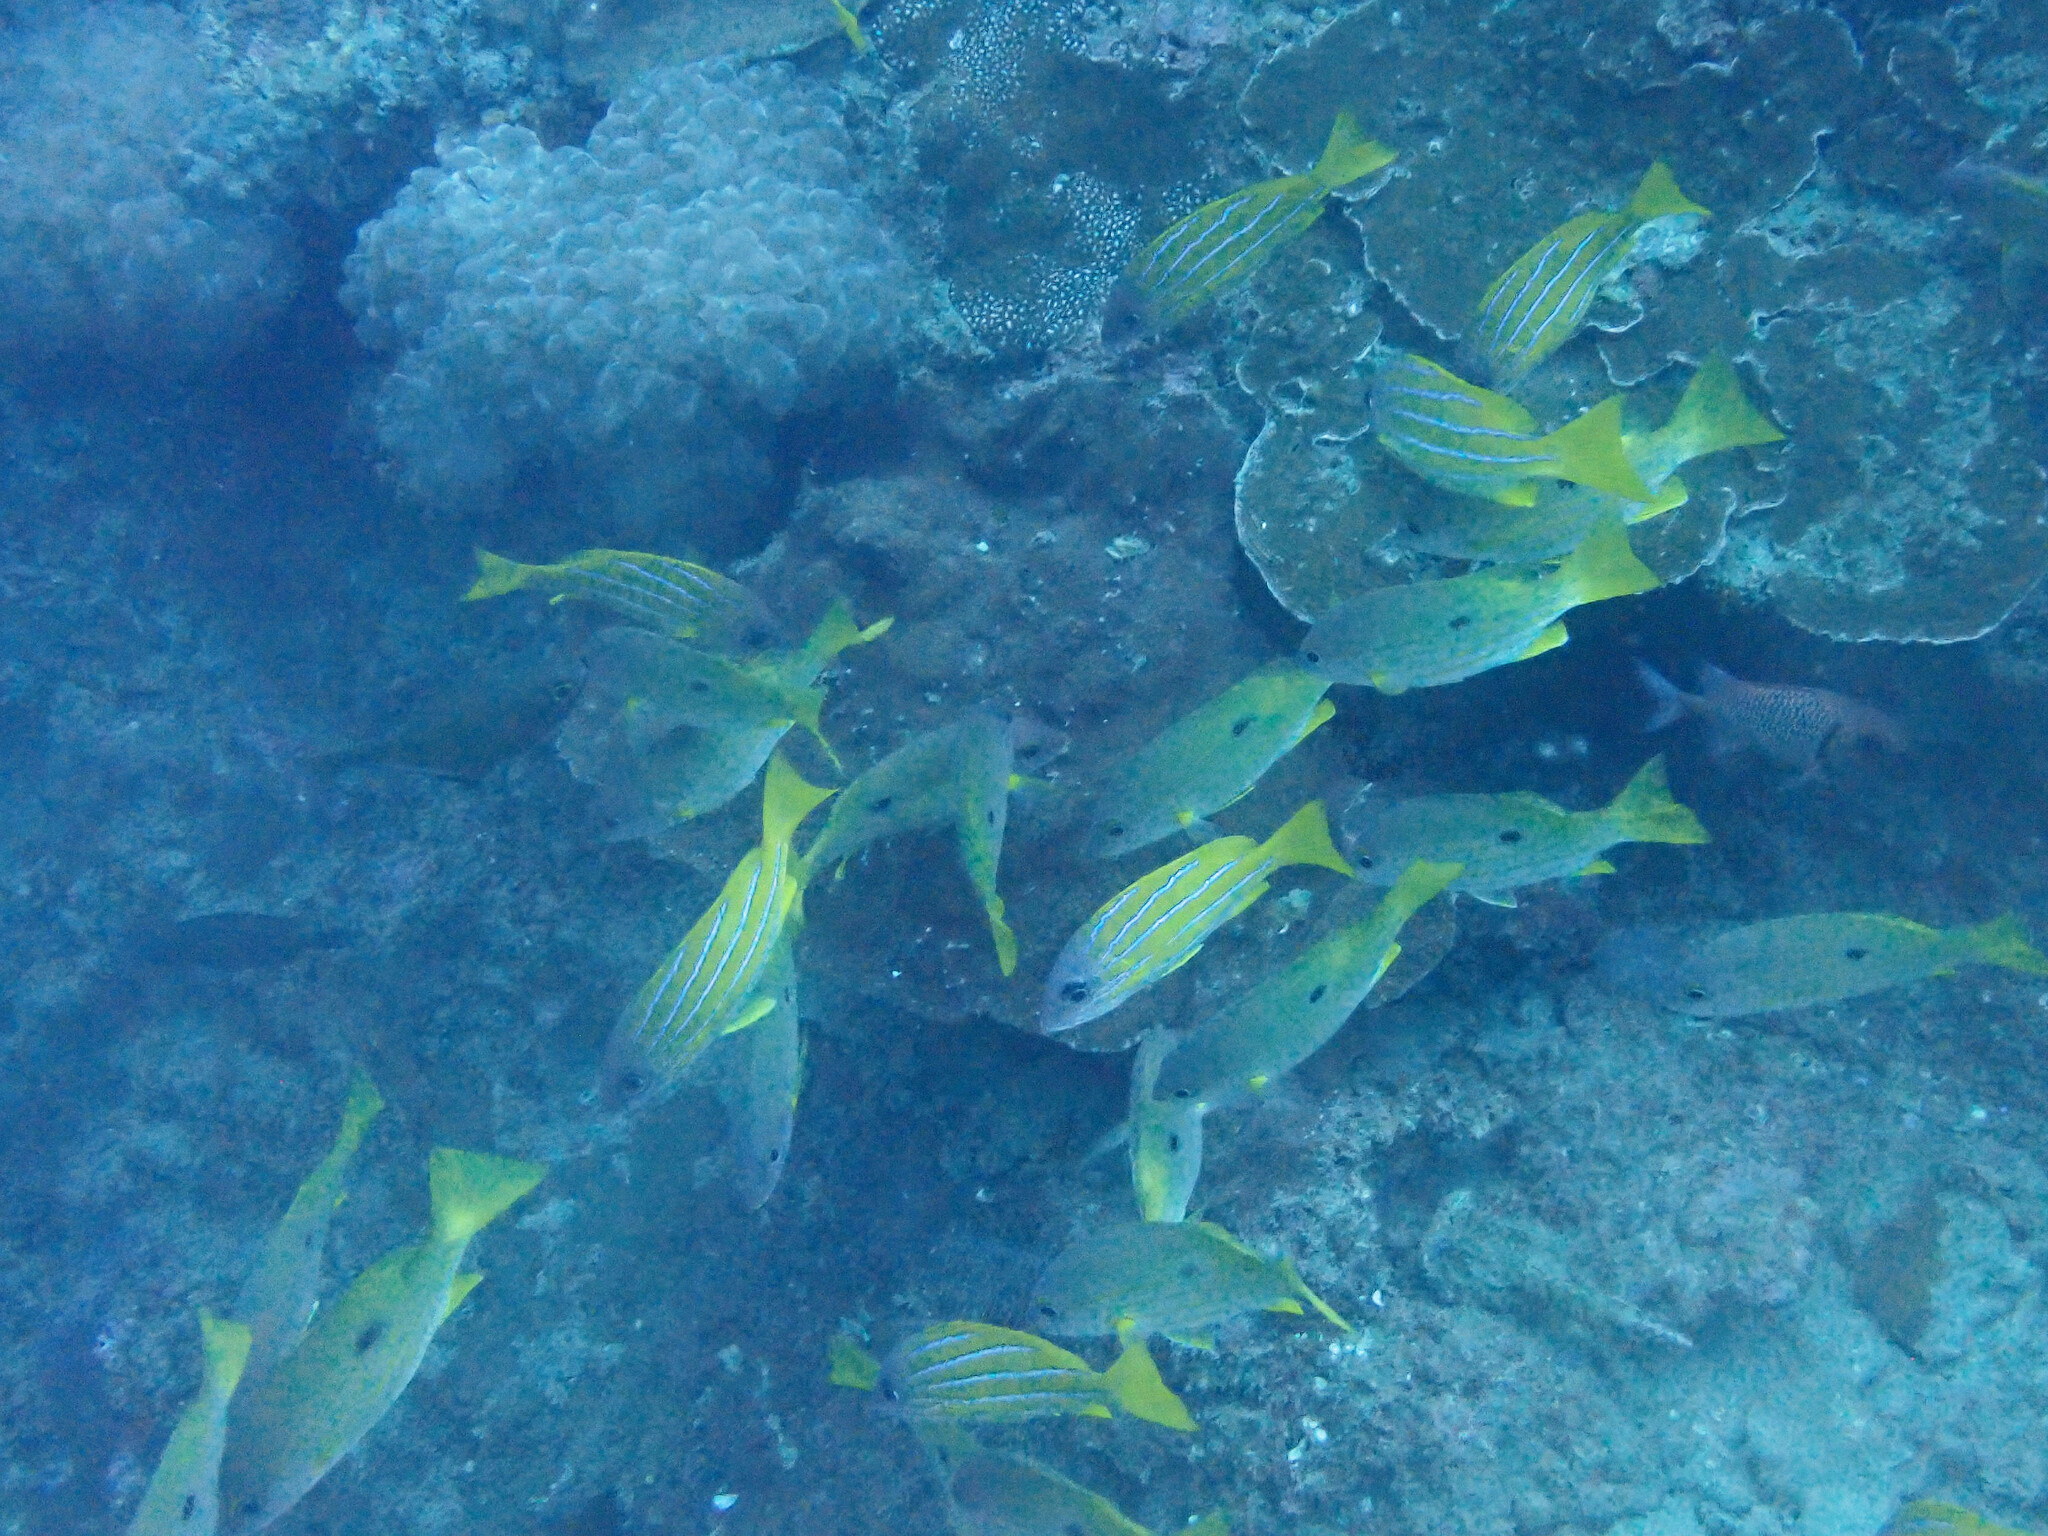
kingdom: Animalia
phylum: Chordata
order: Perciformes
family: Lutjanidae
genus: Lutjanus
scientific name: Lutjanus quinquelineatus
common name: Five-lined snapper
